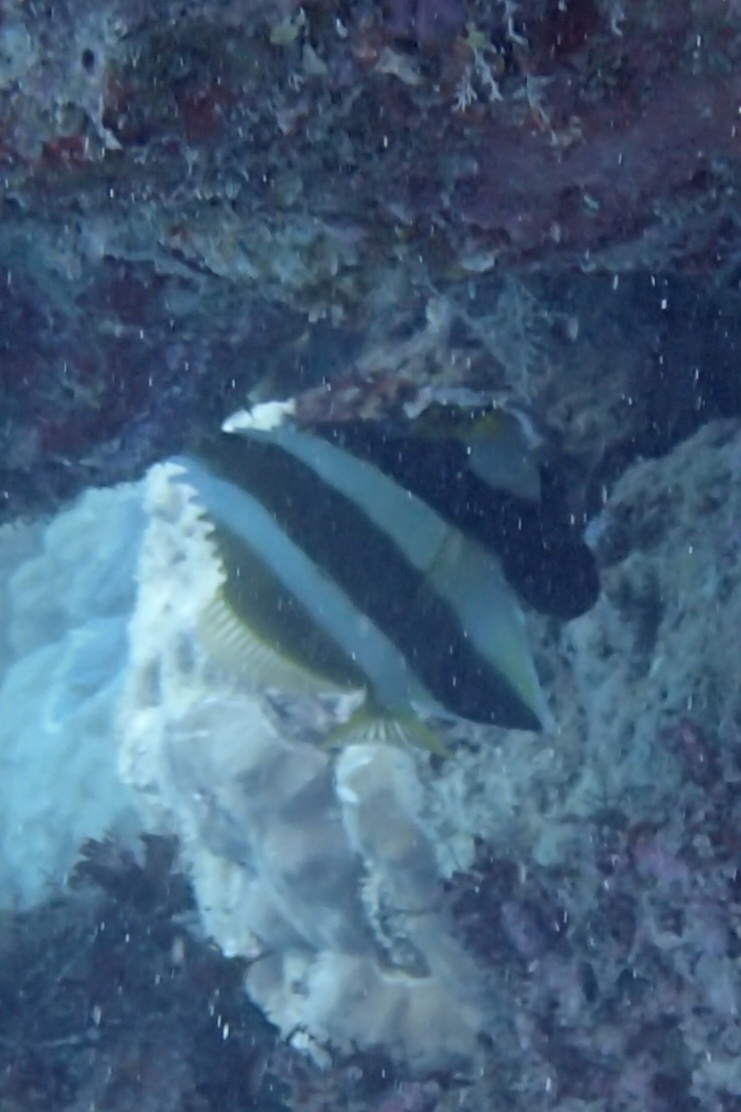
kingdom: Animalia
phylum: Chordata
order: Perciformes
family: Chaetodontidae
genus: Heniochus
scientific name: Heniochus chrysostomus
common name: Horned bannerfish
